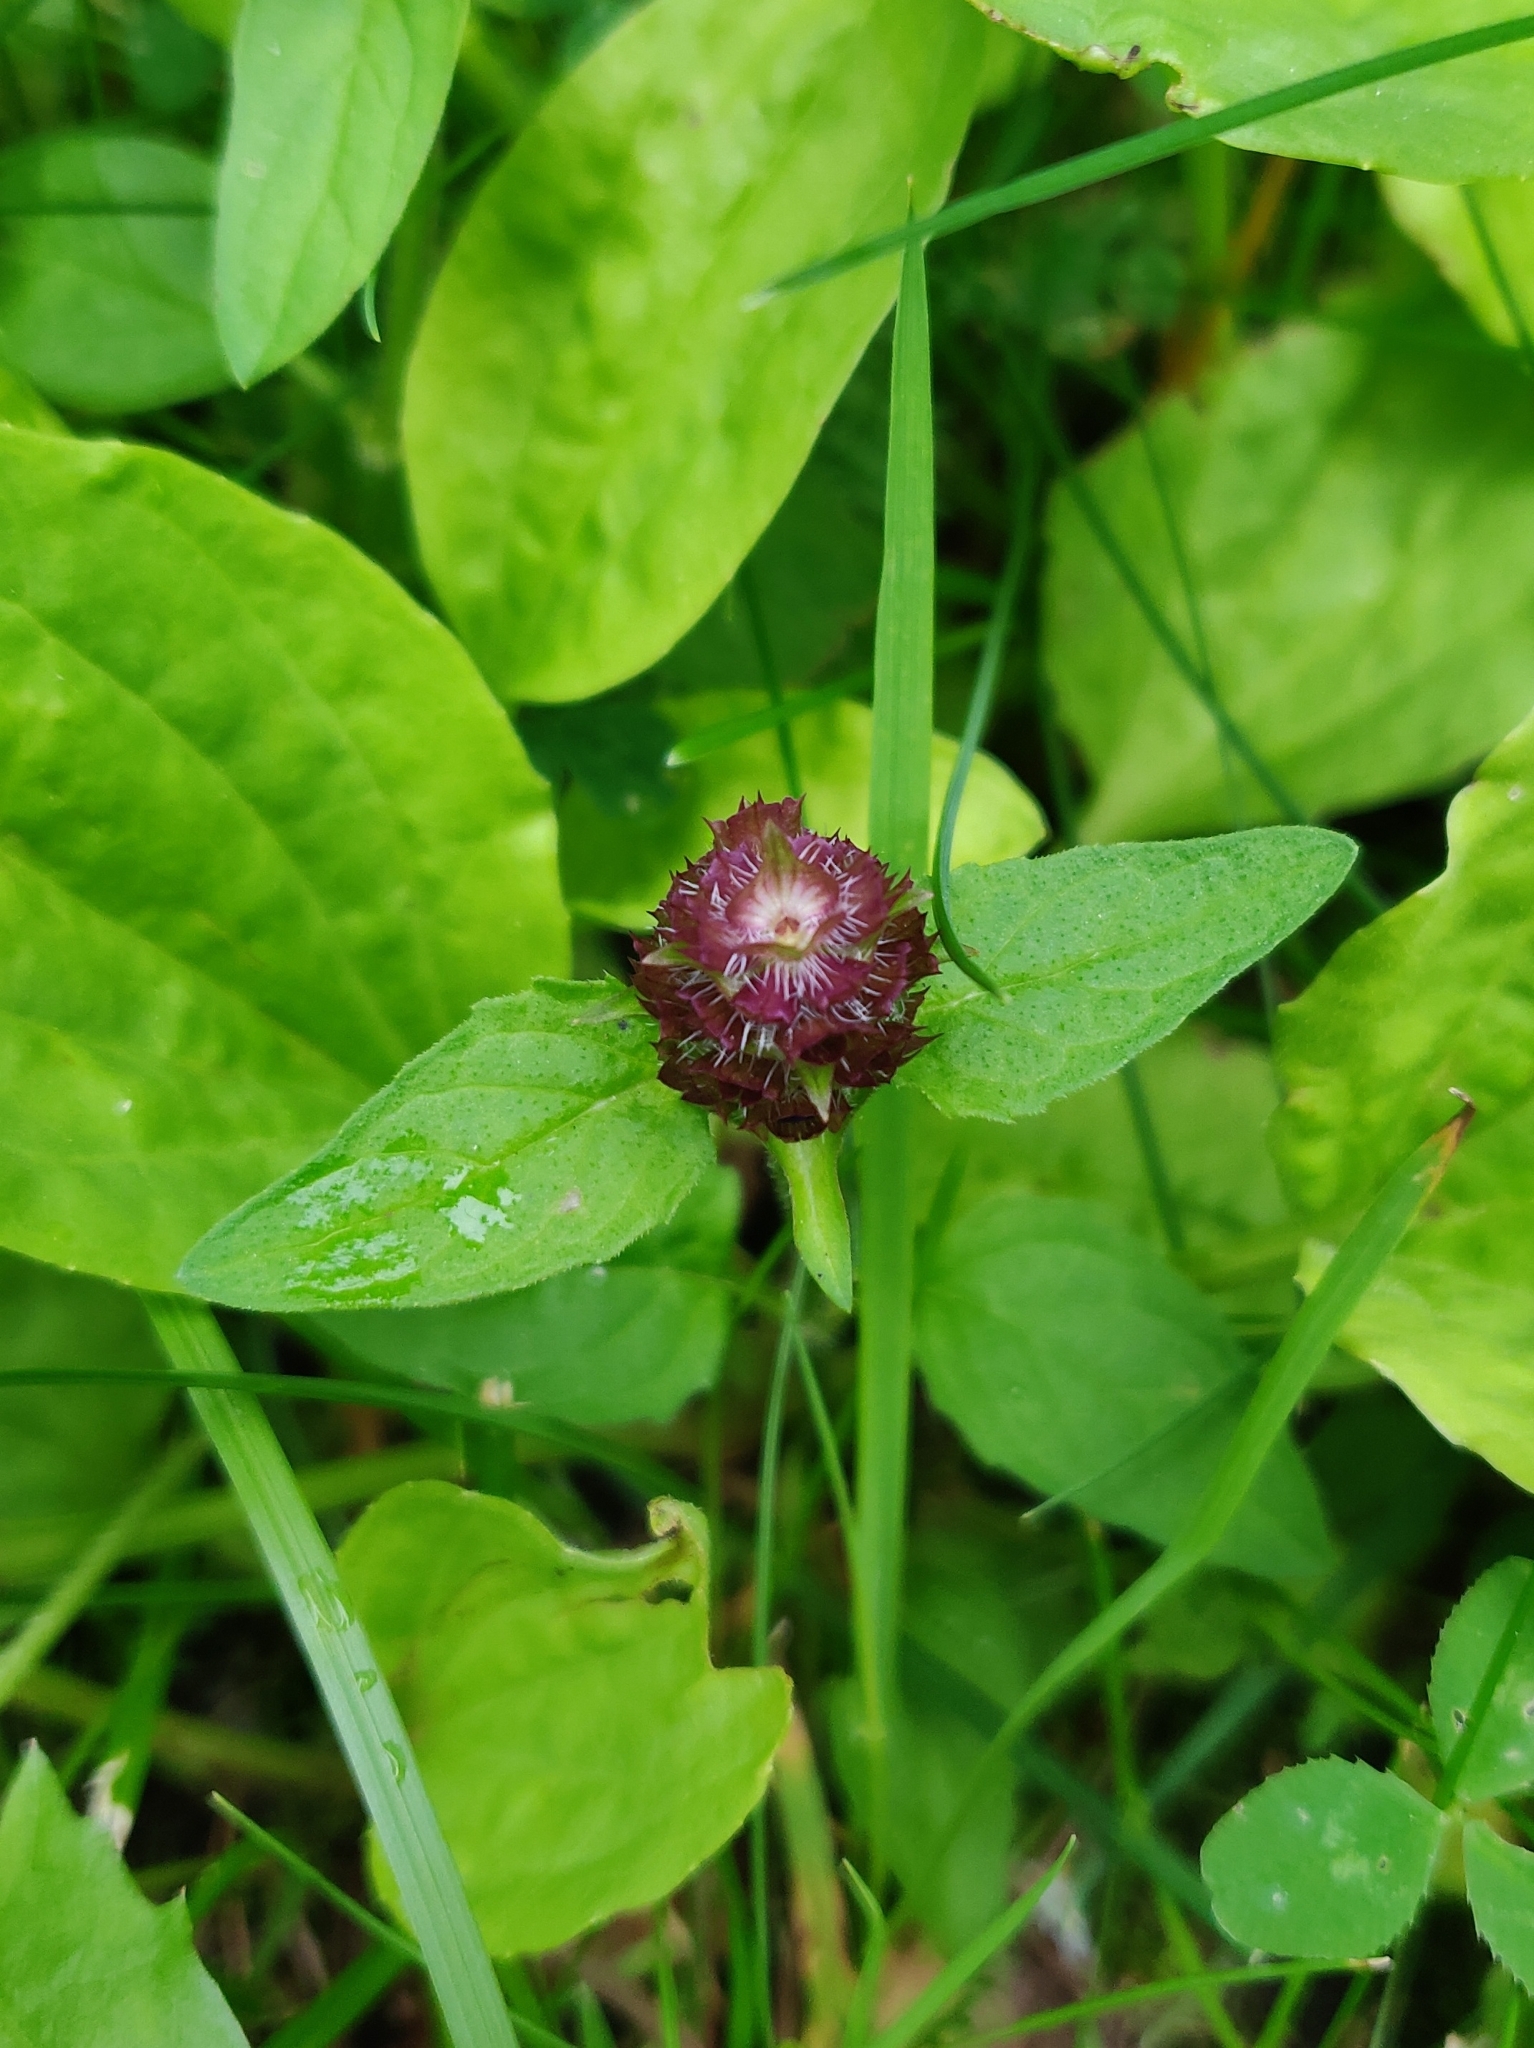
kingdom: Plantae
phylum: Tracheophyta
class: Magnoliopsida
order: Lamiales
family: Lamiaceae
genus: Prunella
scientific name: Prunella vulgaris
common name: Heal-all
